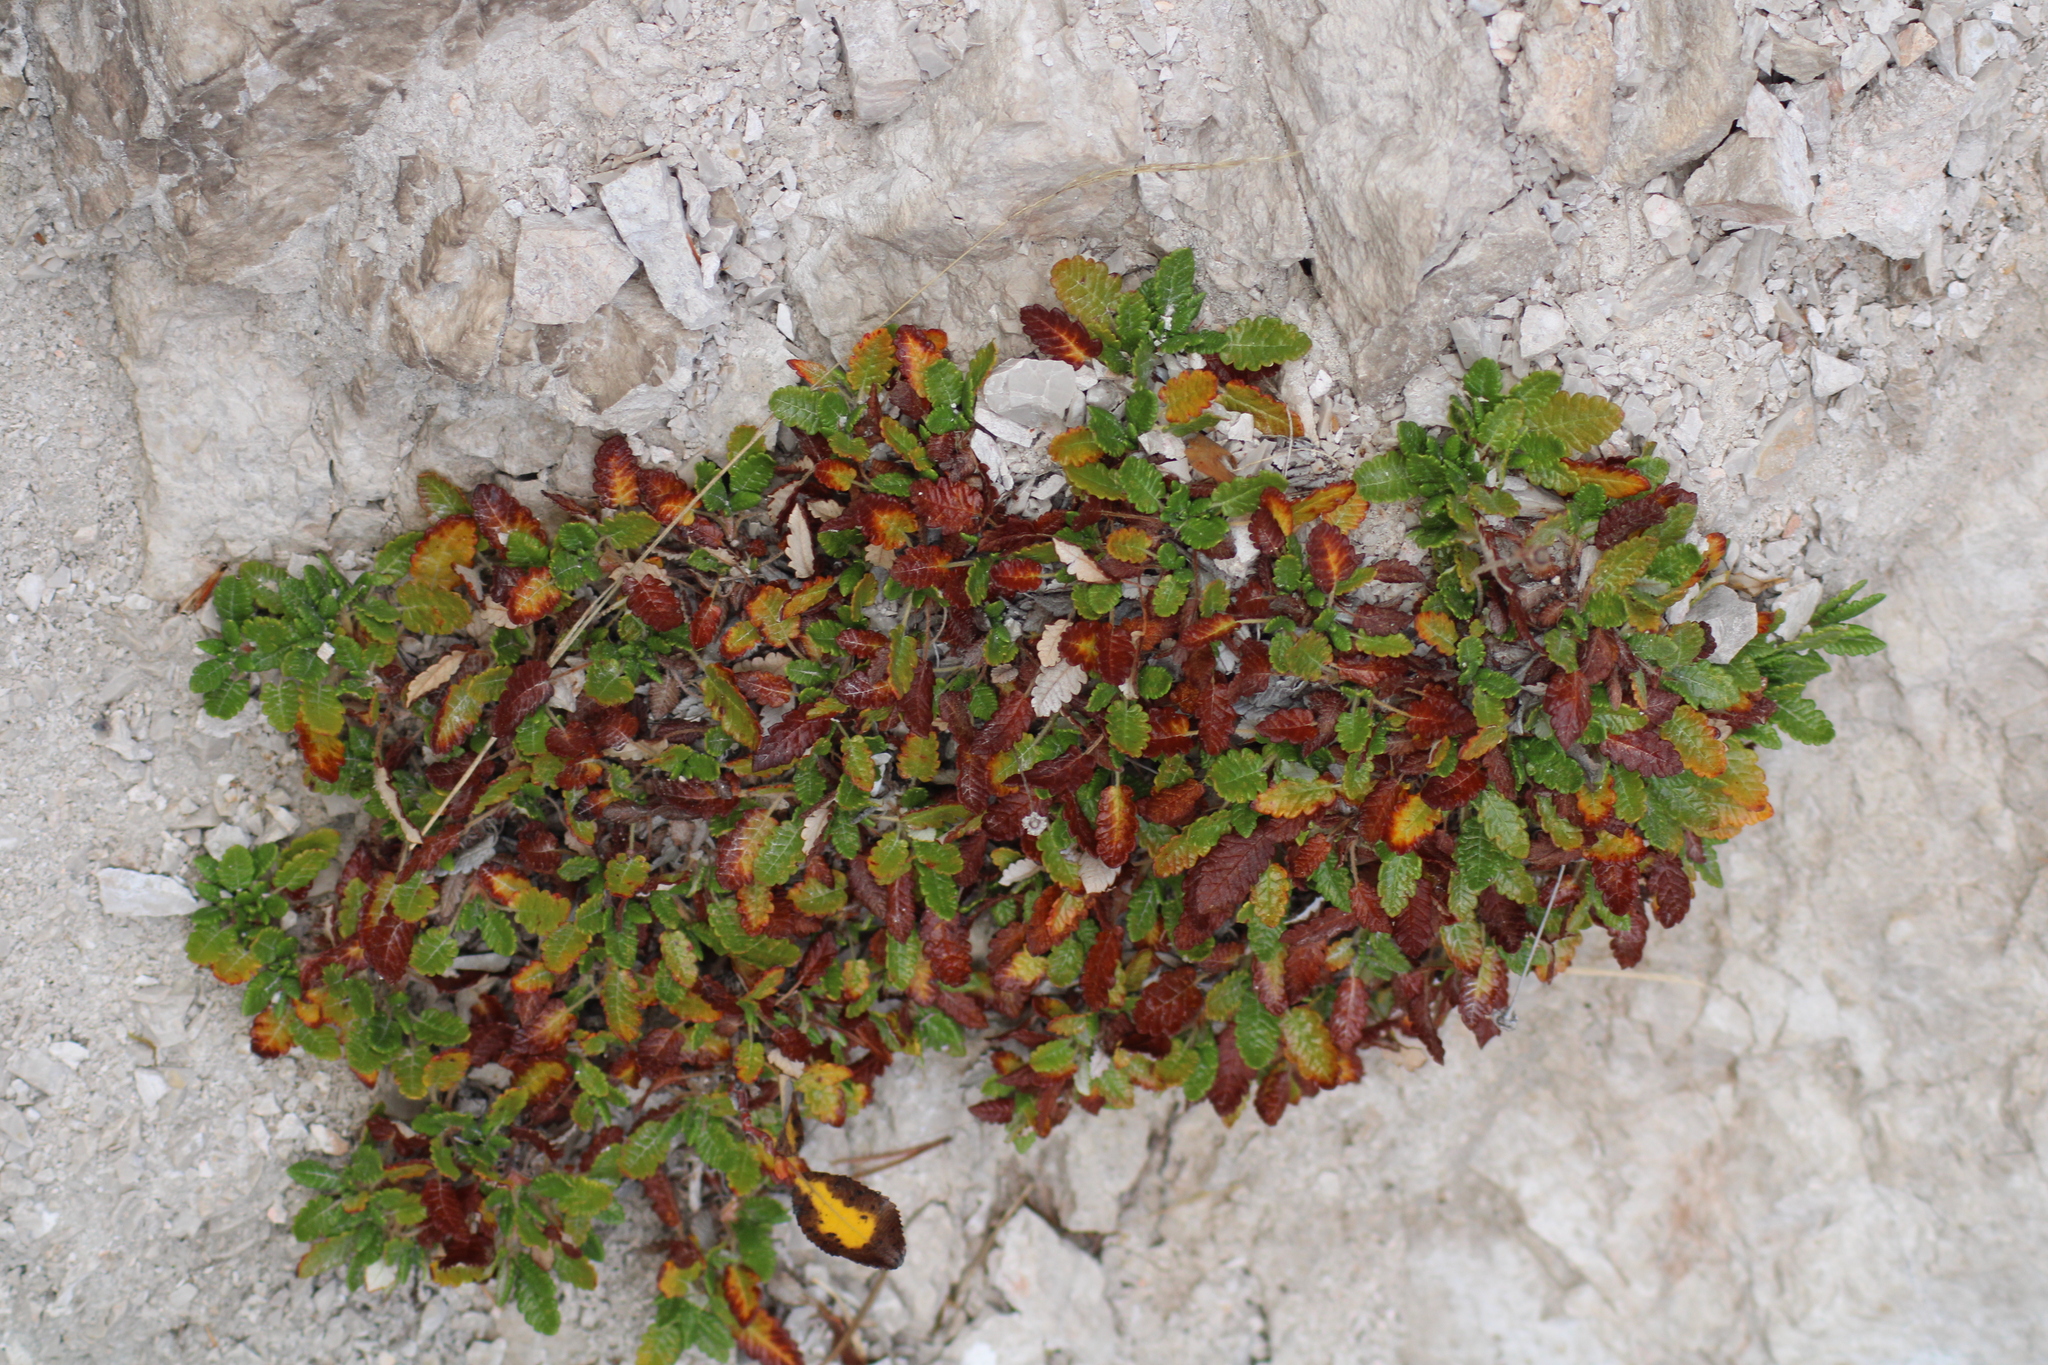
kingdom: Plantae
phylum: Tracheophyta
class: Magnoliopsida
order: Rosales
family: Rosaceae
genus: Dryas
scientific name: Dryas octopetala
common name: Eight-petal mountain-avens
